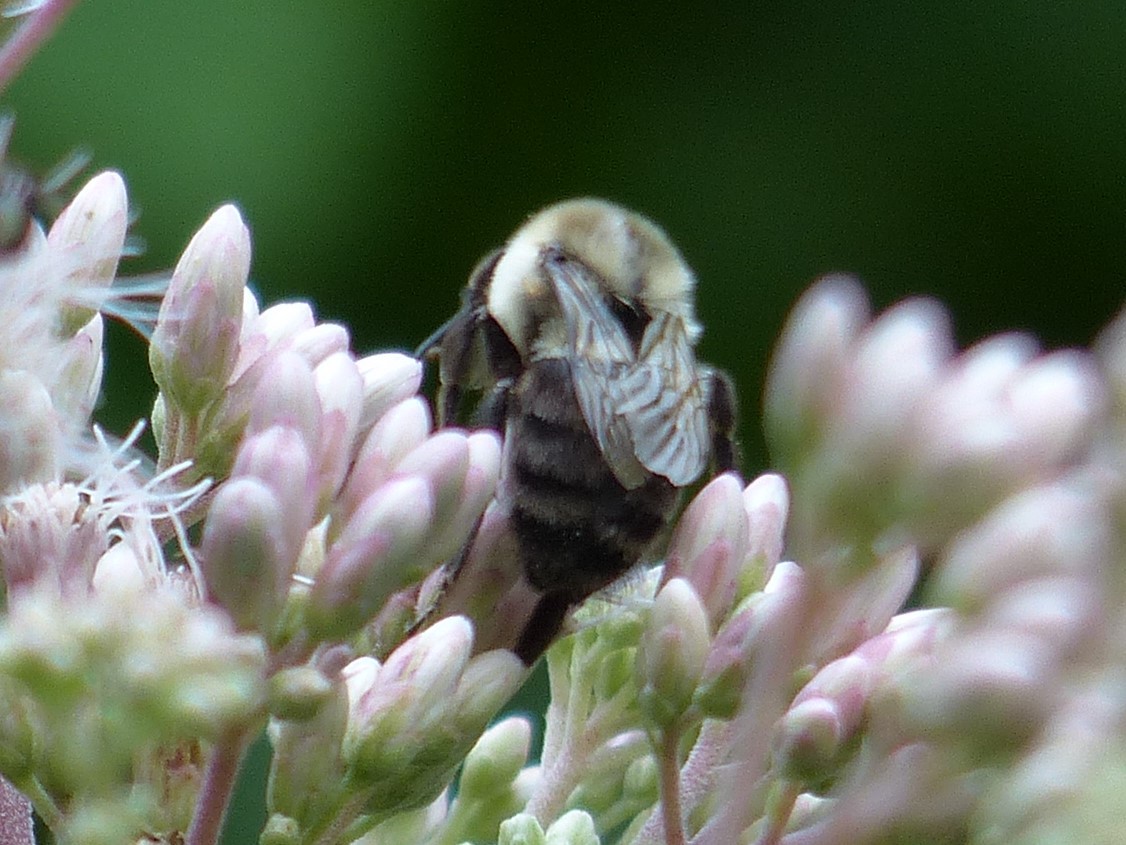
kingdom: Animalia
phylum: Arthropoda
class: Insecta
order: Hymenoptera
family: Apidae
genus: Bombus
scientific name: Bombus impatiens
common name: Common eastern bumble bee
